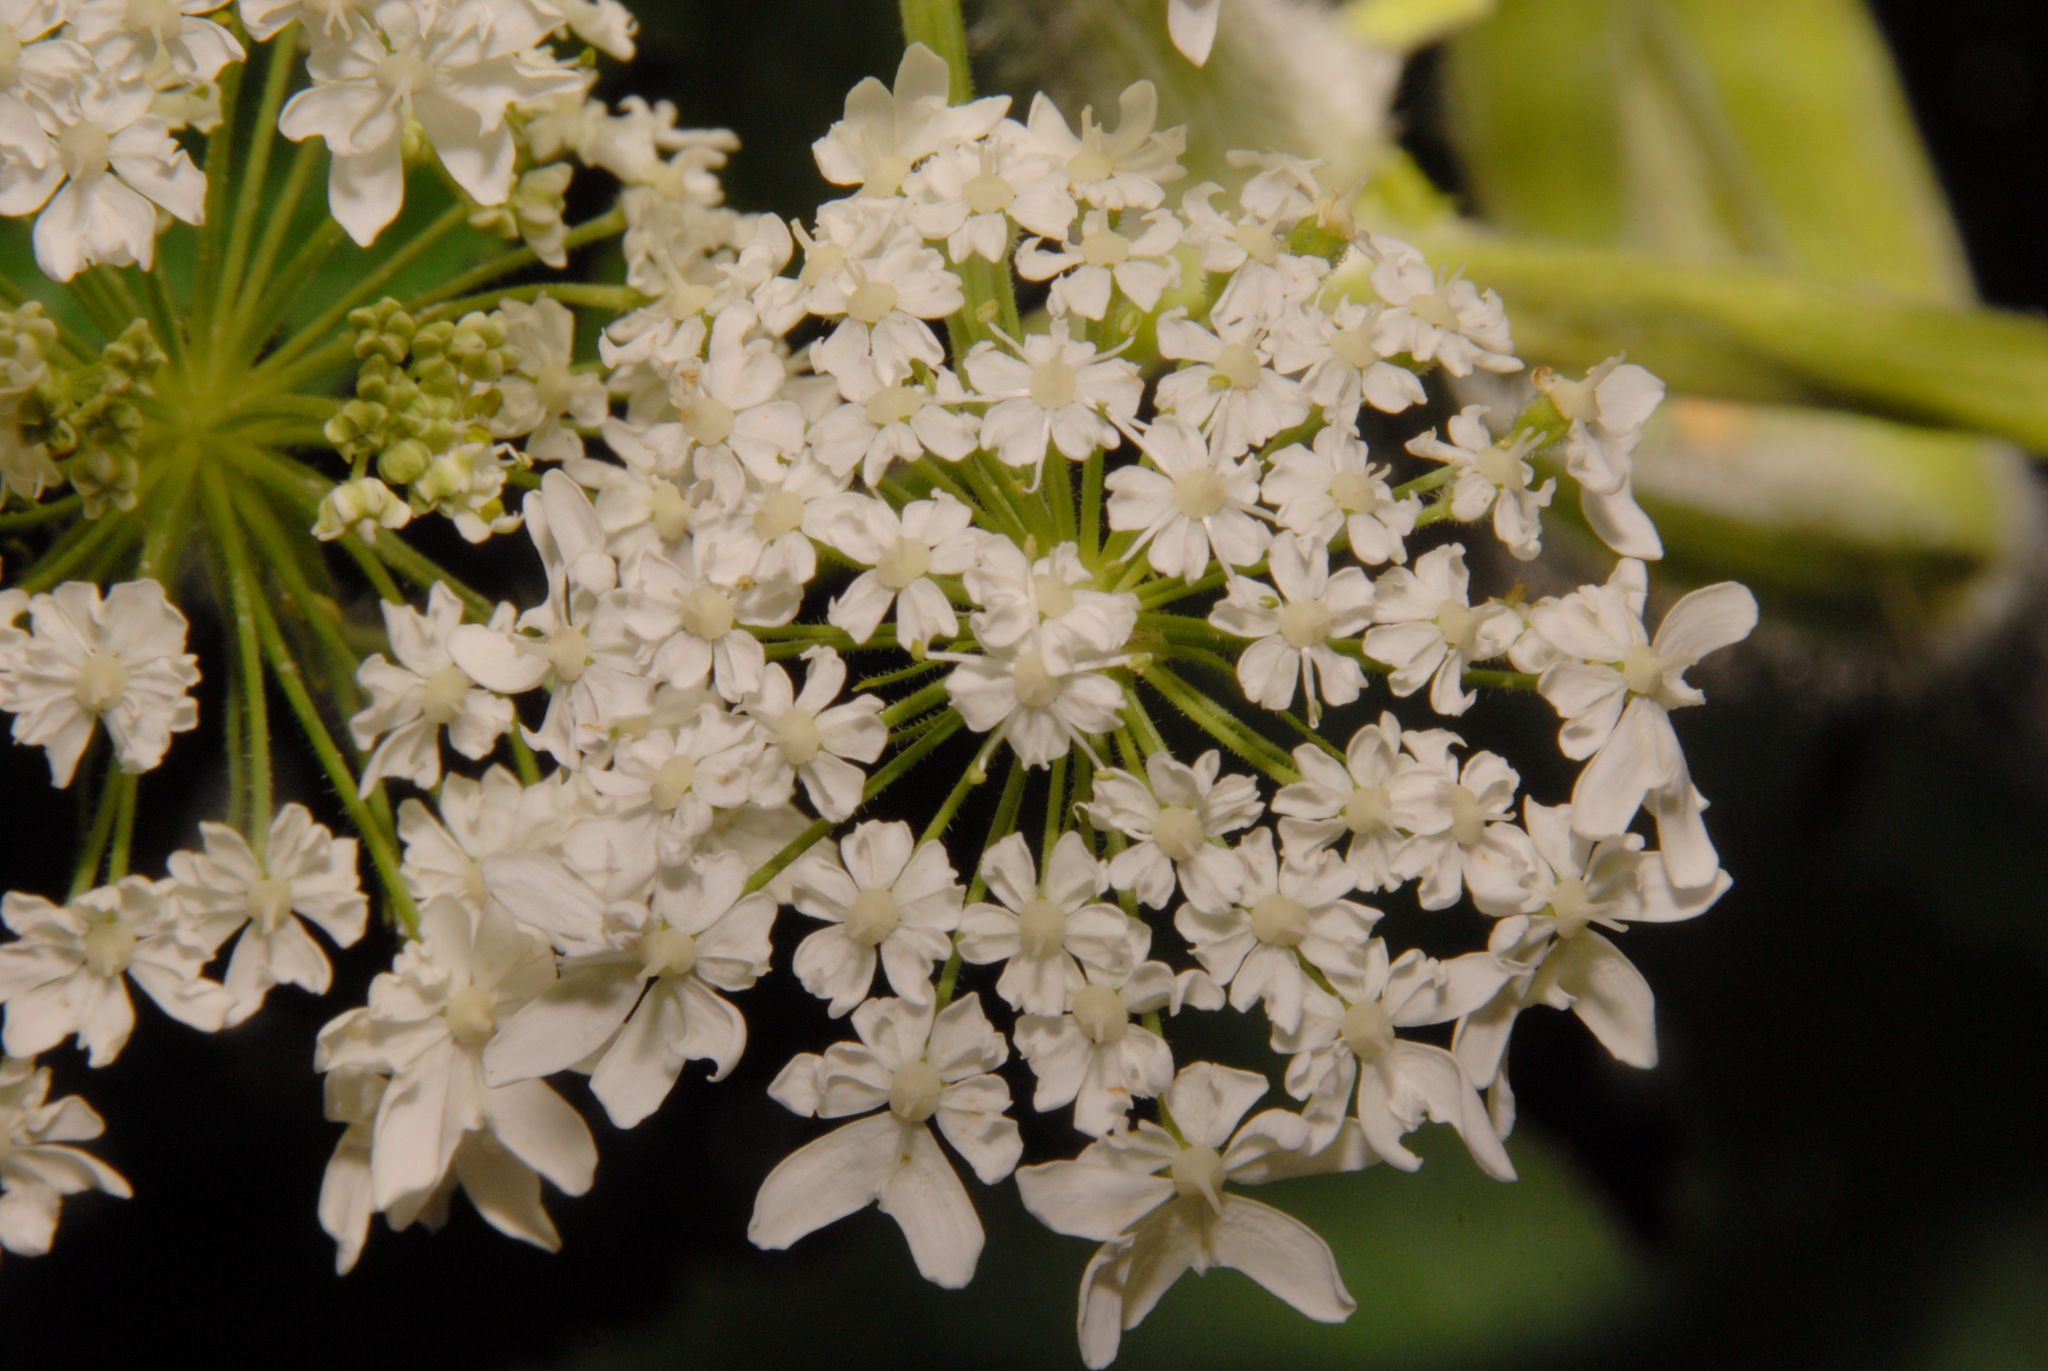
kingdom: Plantae
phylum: Tracheophyta
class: Magnoliopsida
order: Apiales
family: Apiaceae
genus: Heracleum
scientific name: Heracleum maximum
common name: American cow parsnip
